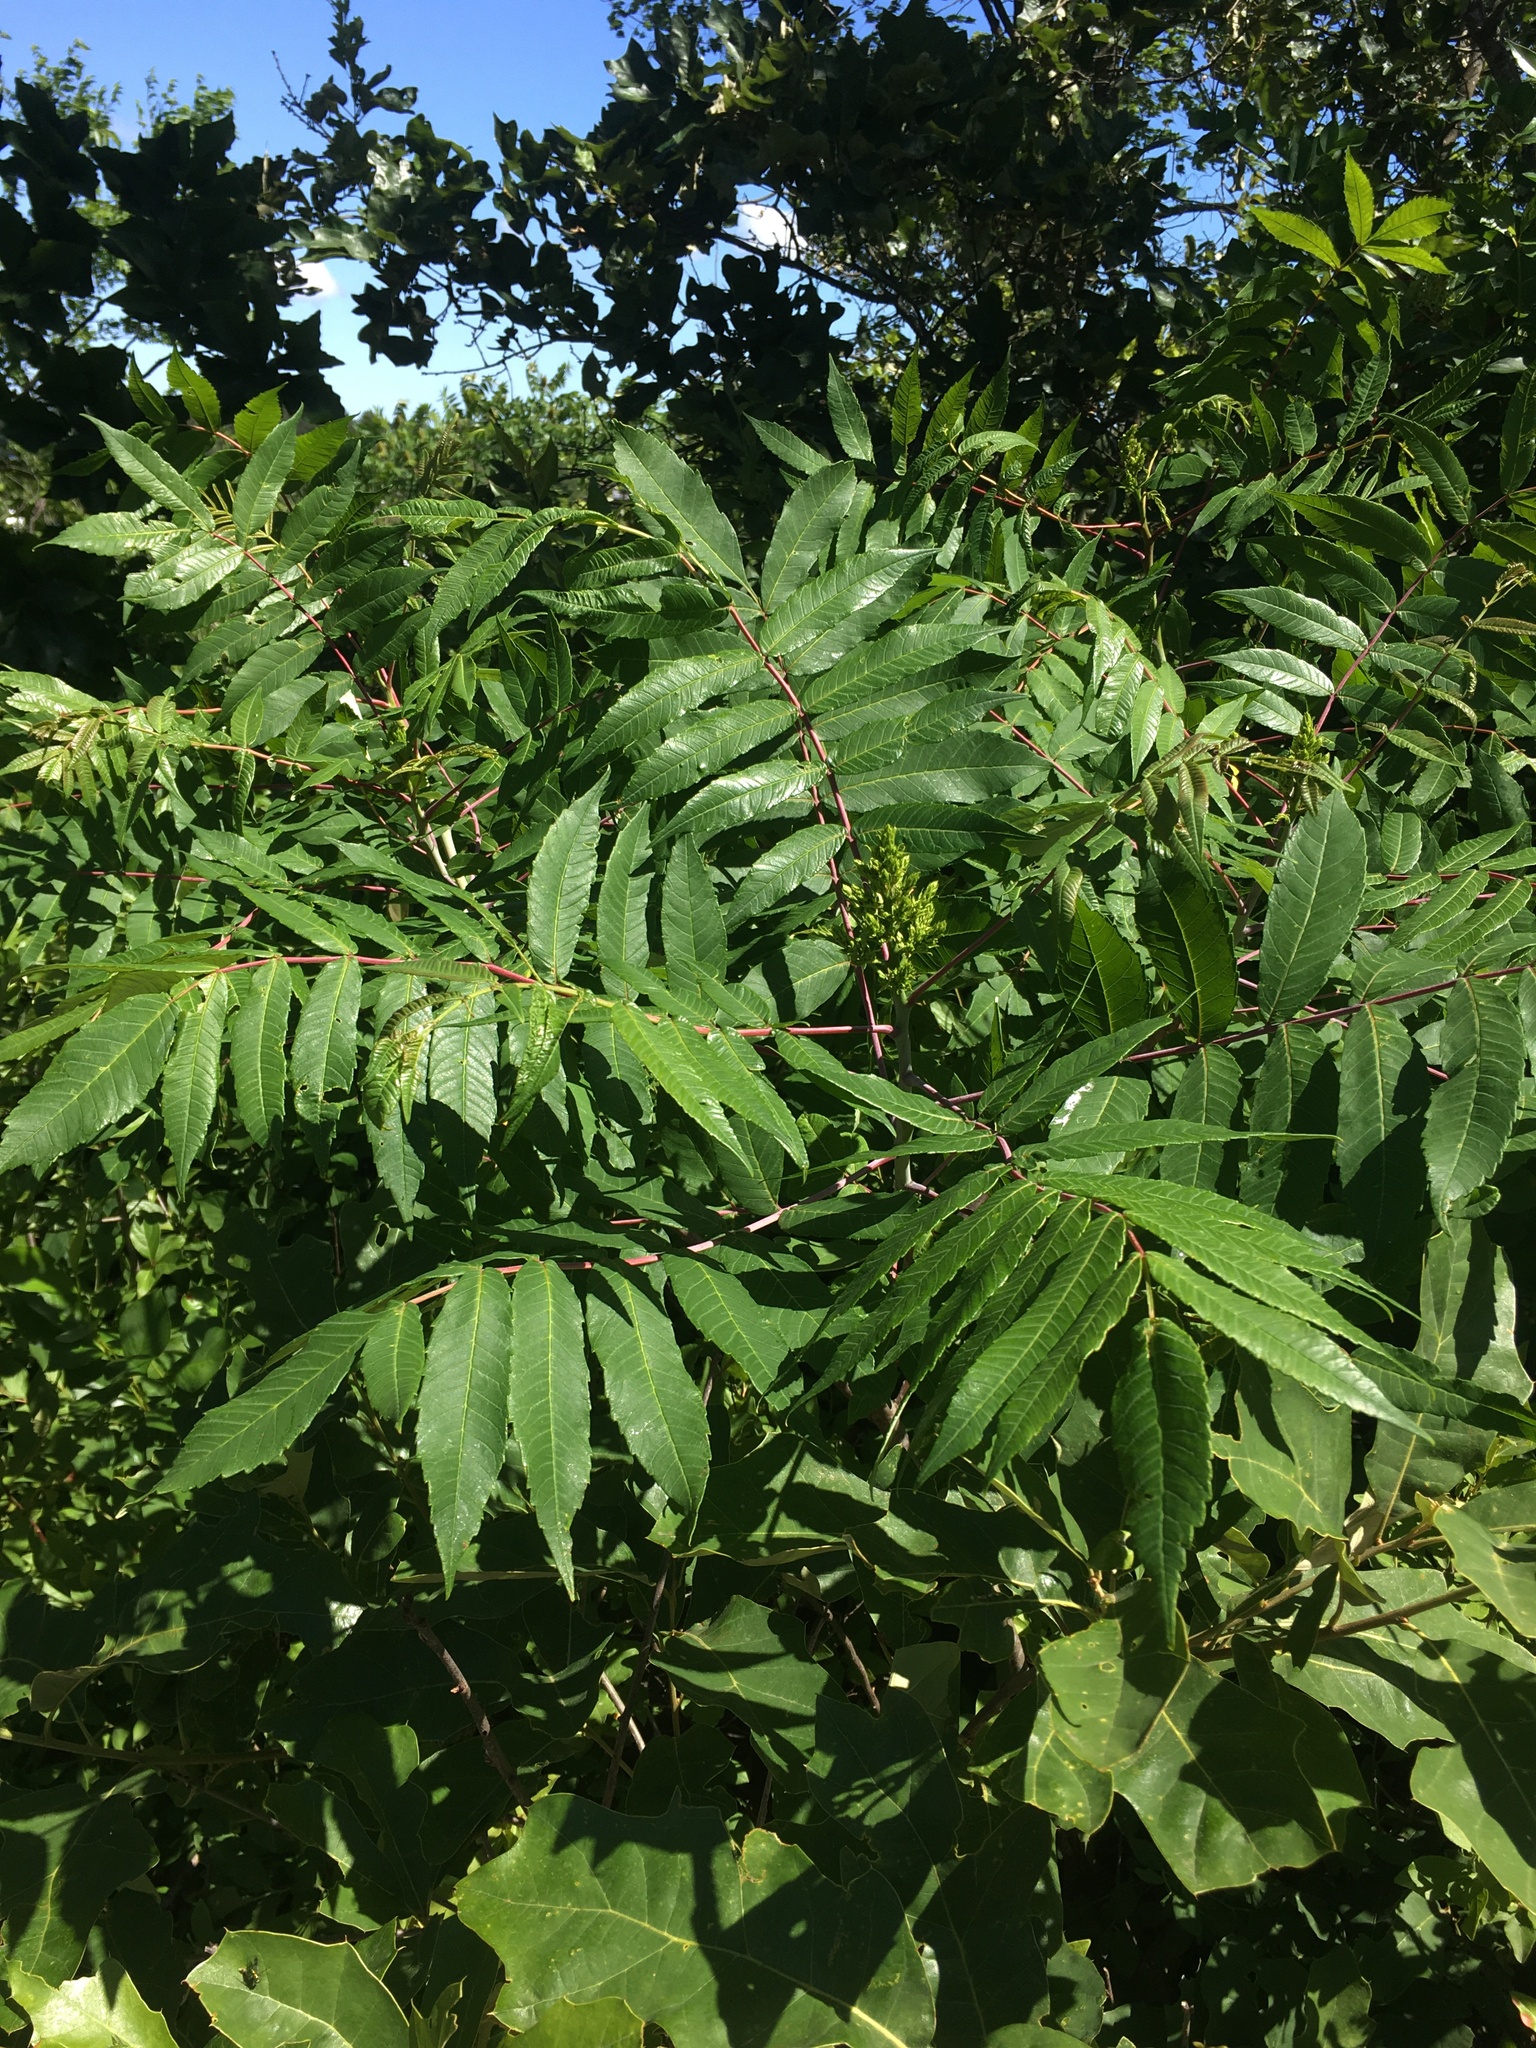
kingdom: Plantae
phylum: Tracheophyta
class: Magnoliopsida
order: Sapindales
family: Anacardiaceae
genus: Rhus
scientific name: Rhus glabra
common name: Scarlet sumac
